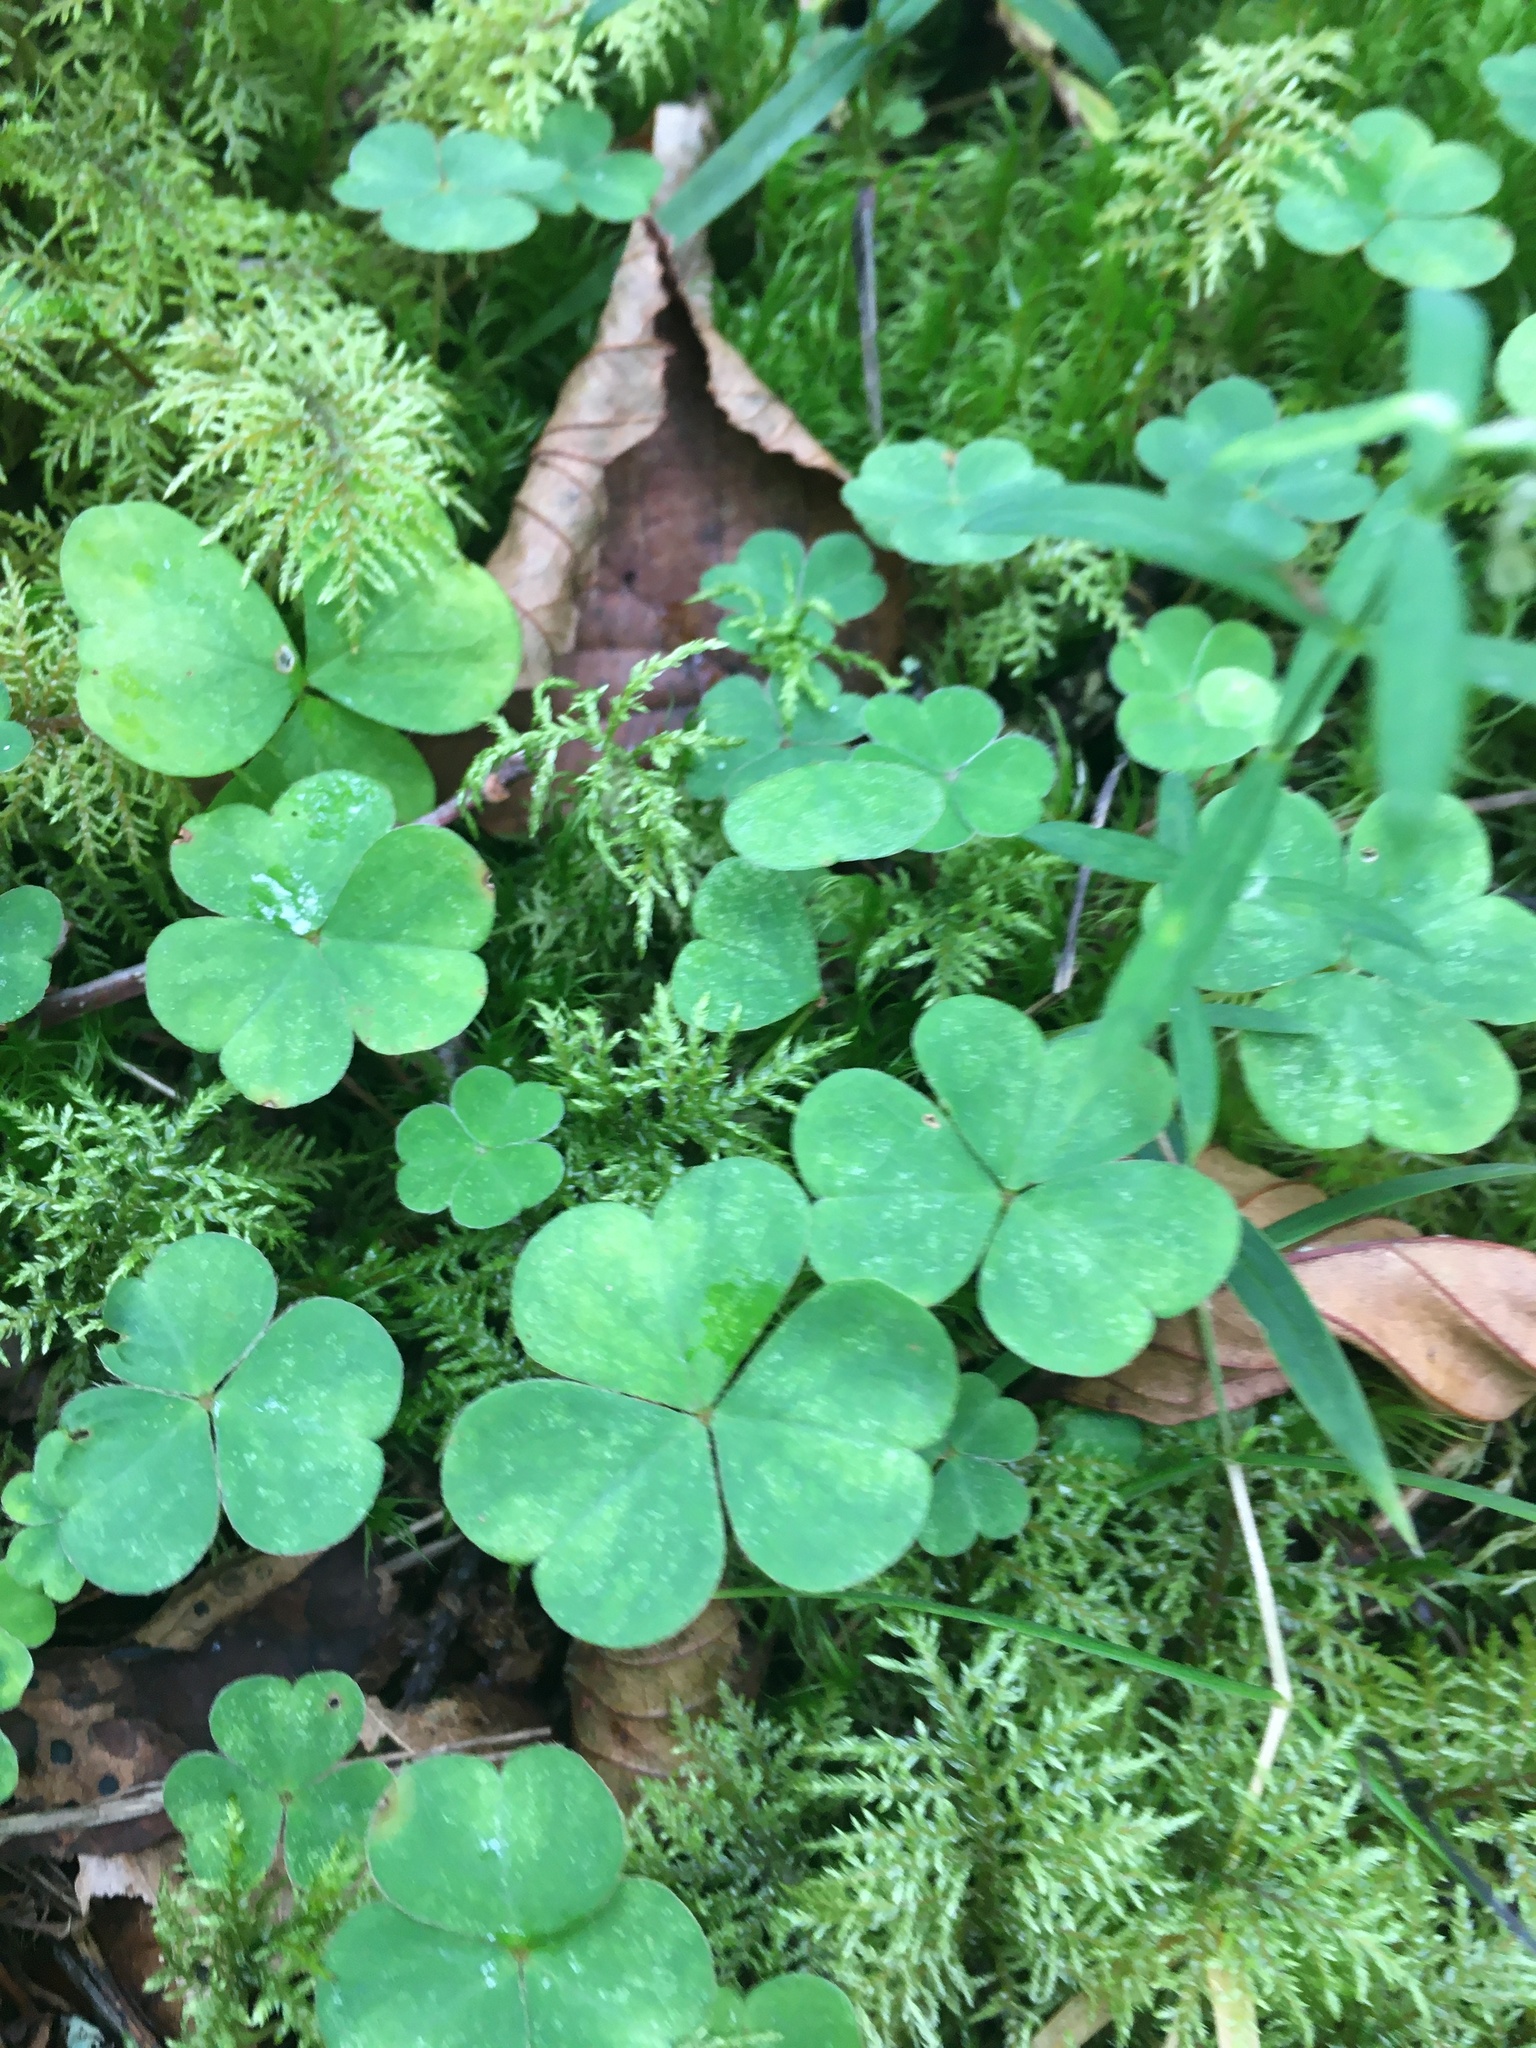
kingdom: Plantae
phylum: Tracheophyta
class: Magnoliopsida
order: Oxalidales
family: Oxalidaceae
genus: Oxalis
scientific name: Oxalis acetosella
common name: Wood-sorrel
